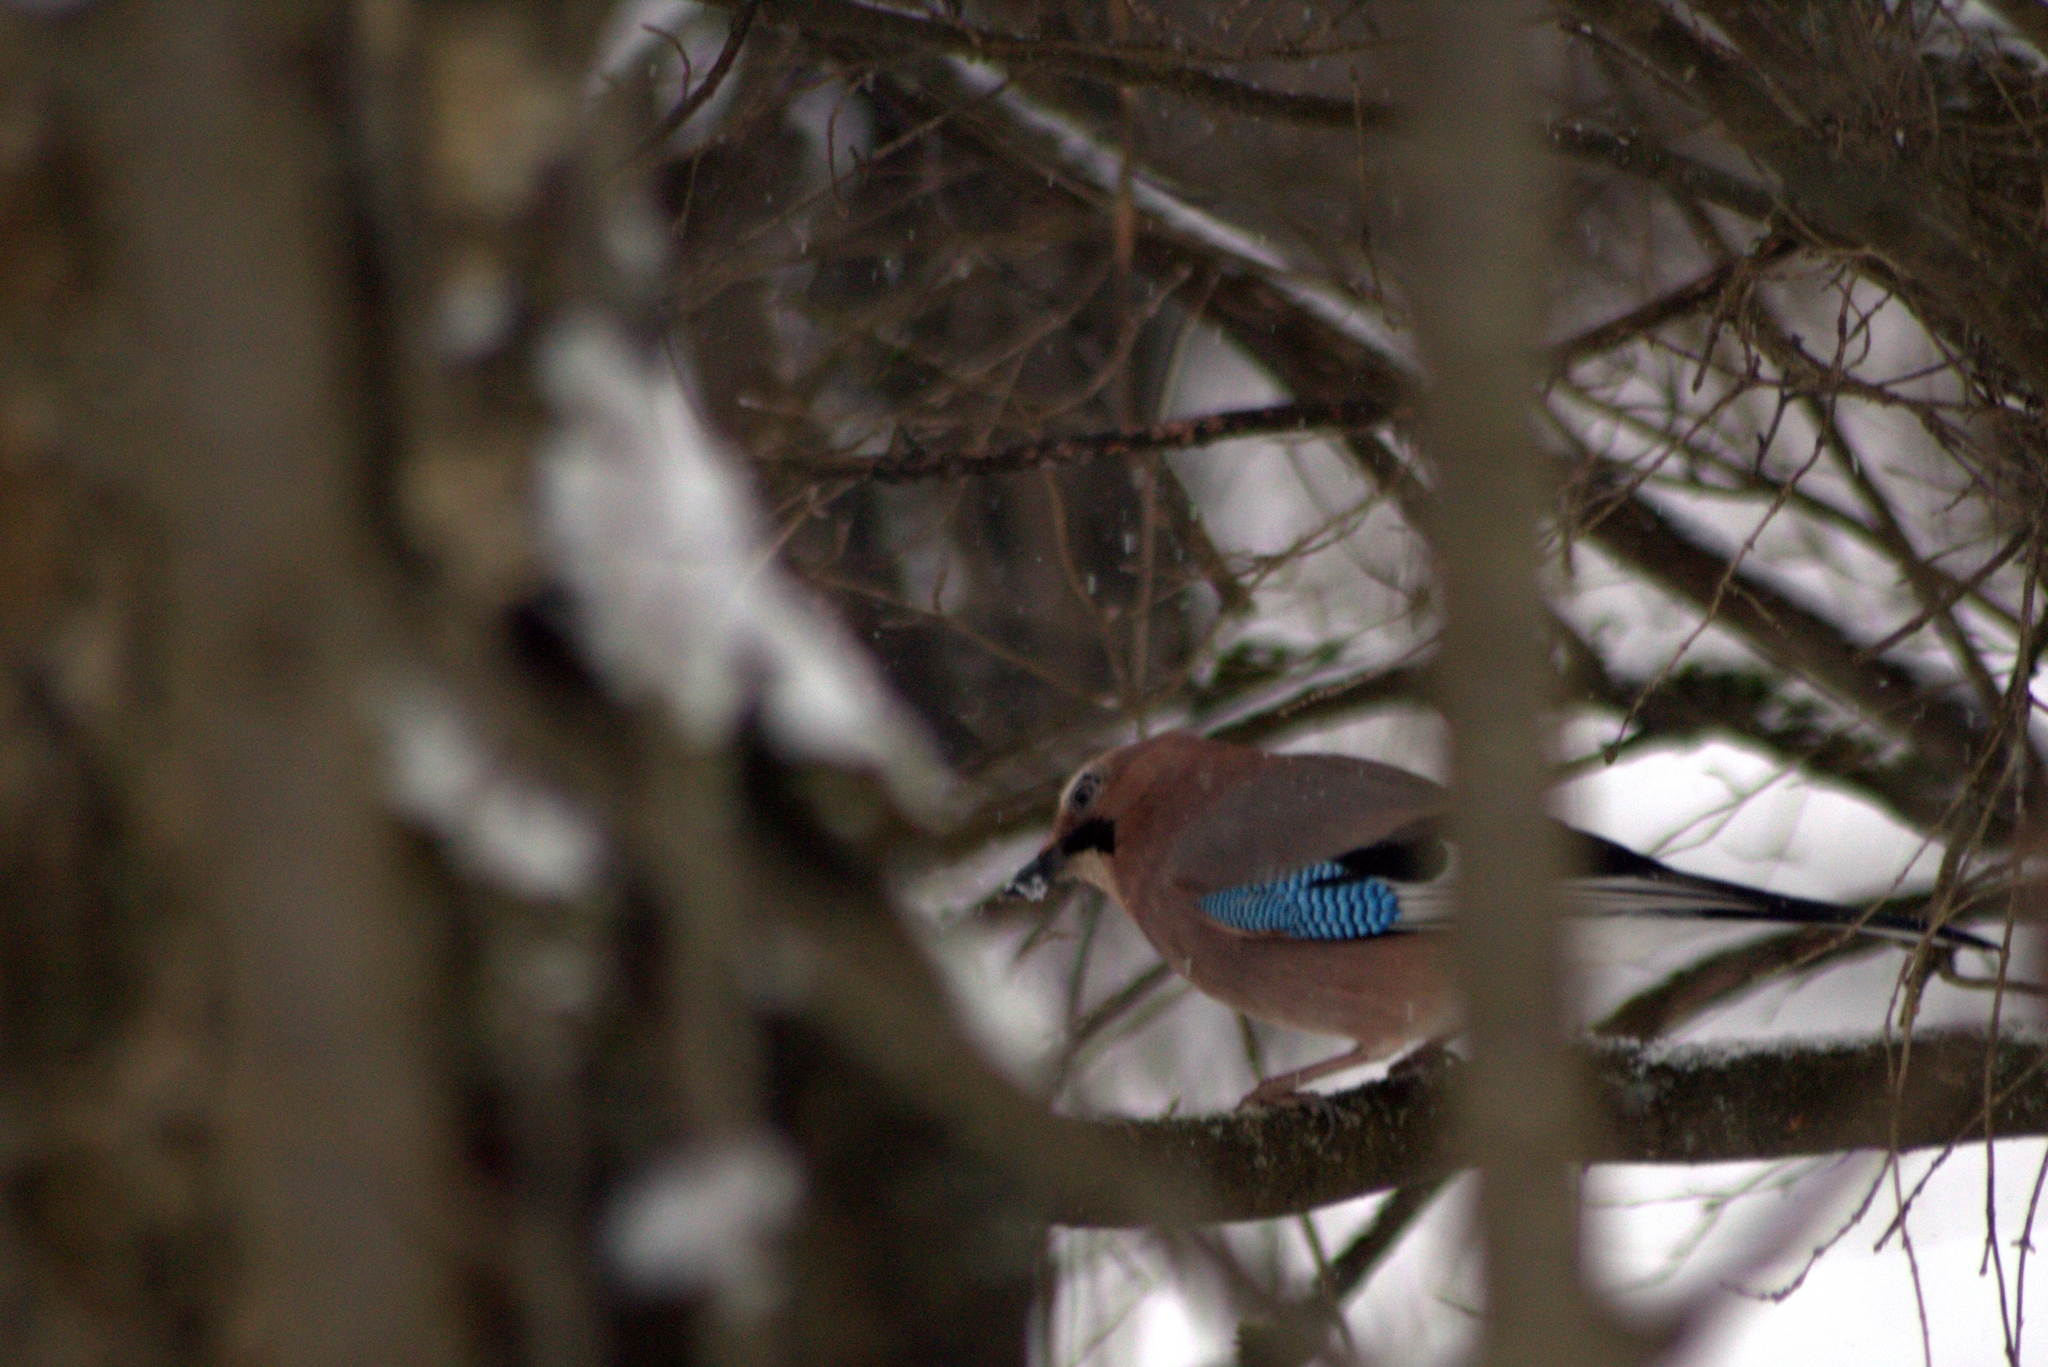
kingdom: Animalia
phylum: Chordata
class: Aves
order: Passeriformes
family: Corvidae
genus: Garrulus
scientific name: Garrulus glandarius
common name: Eurasian jay
